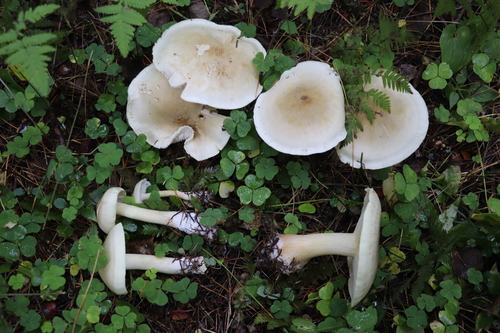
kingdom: Fungi
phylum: Basidiomycota
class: Agaricomycetes
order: Agaricales
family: Tricholomataceae
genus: Tricholoma
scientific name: Tricholoma rapipes
